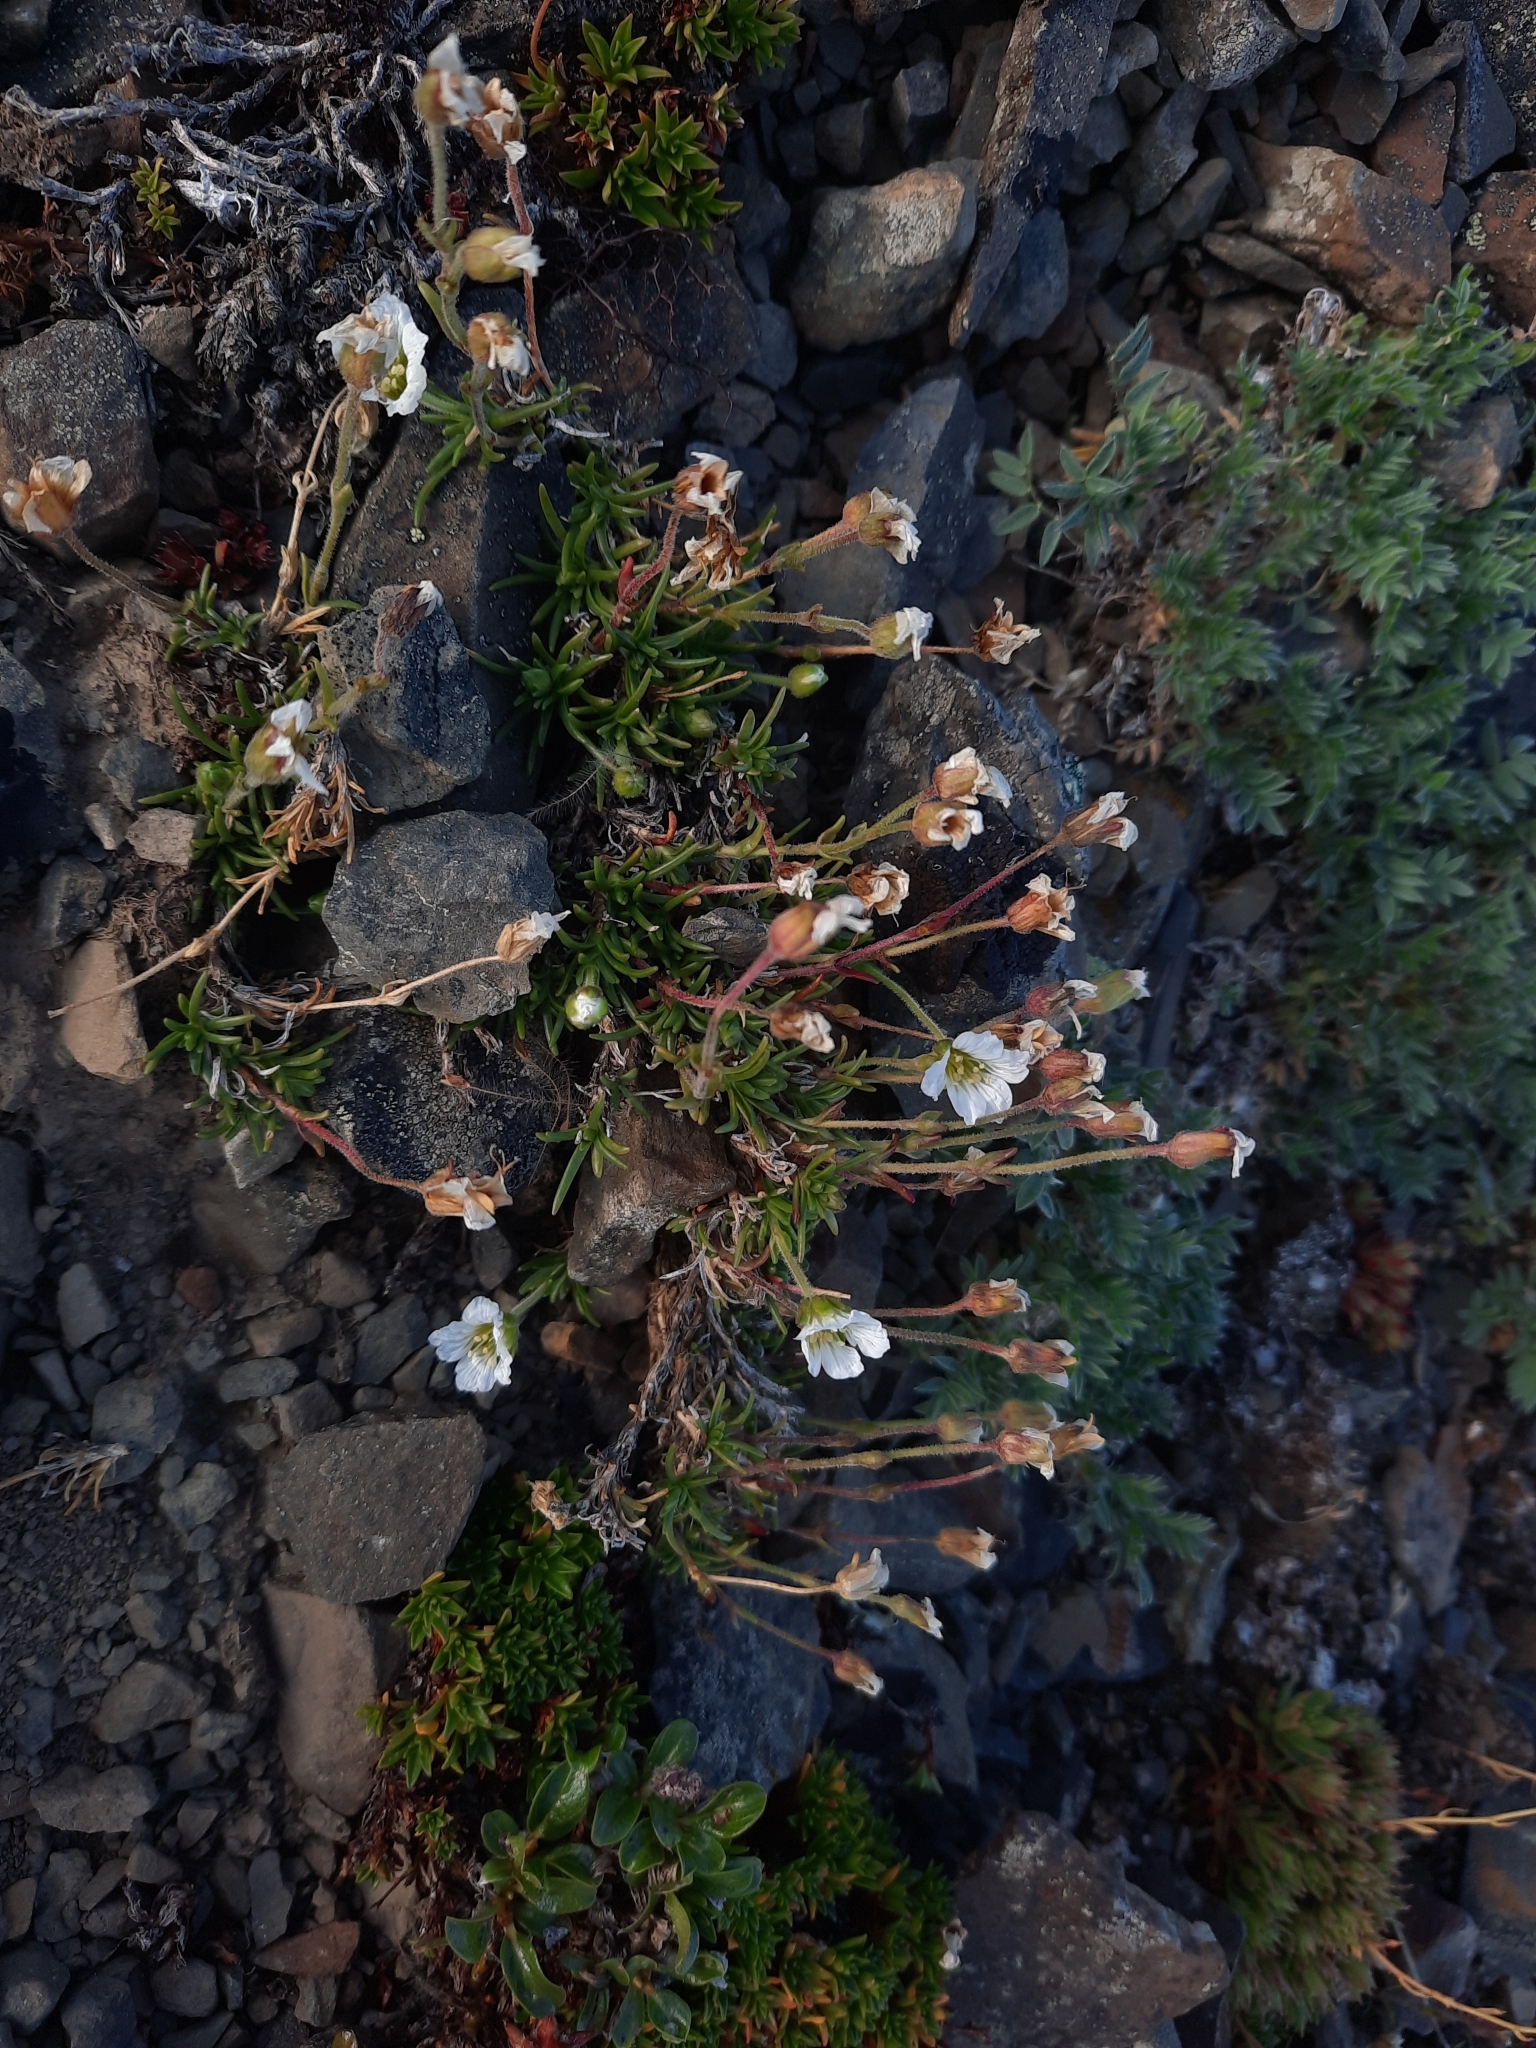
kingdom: Plantae
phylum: Tracheophyta
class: Magnoliopsida
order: Caryophyllales
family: Caryophyllaceae
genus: Cherleria
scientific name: Cherleria arctica
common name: Arctic sandwort
